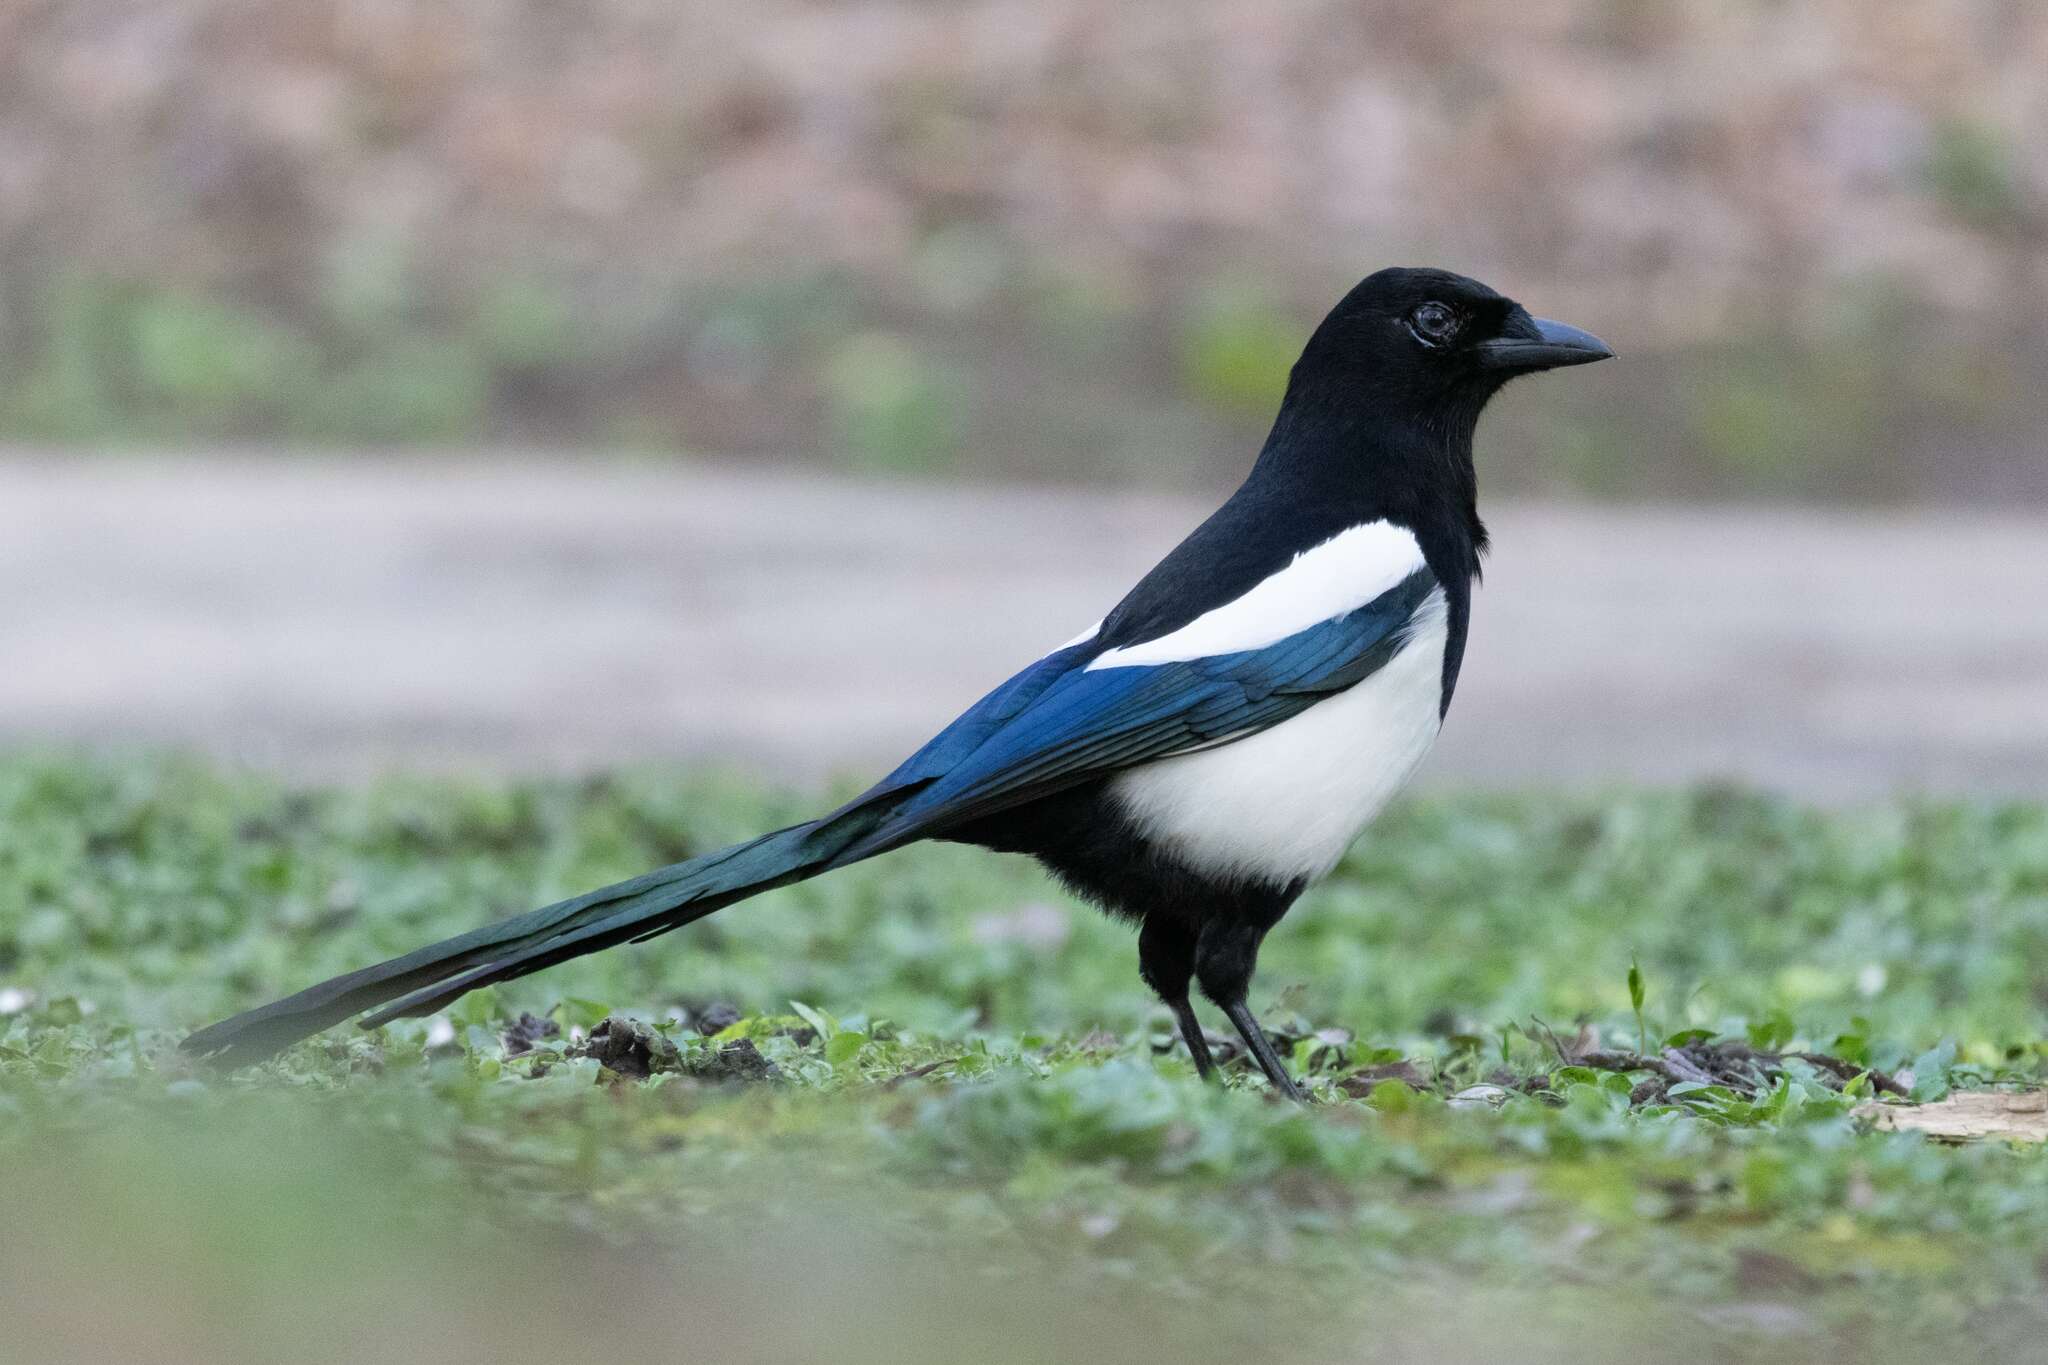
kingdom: Animalia
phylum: Chordata
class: Aves
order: Passeriformes
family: Corvidae
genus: Pica
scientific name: Pica pica
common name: Eurasian magpie
